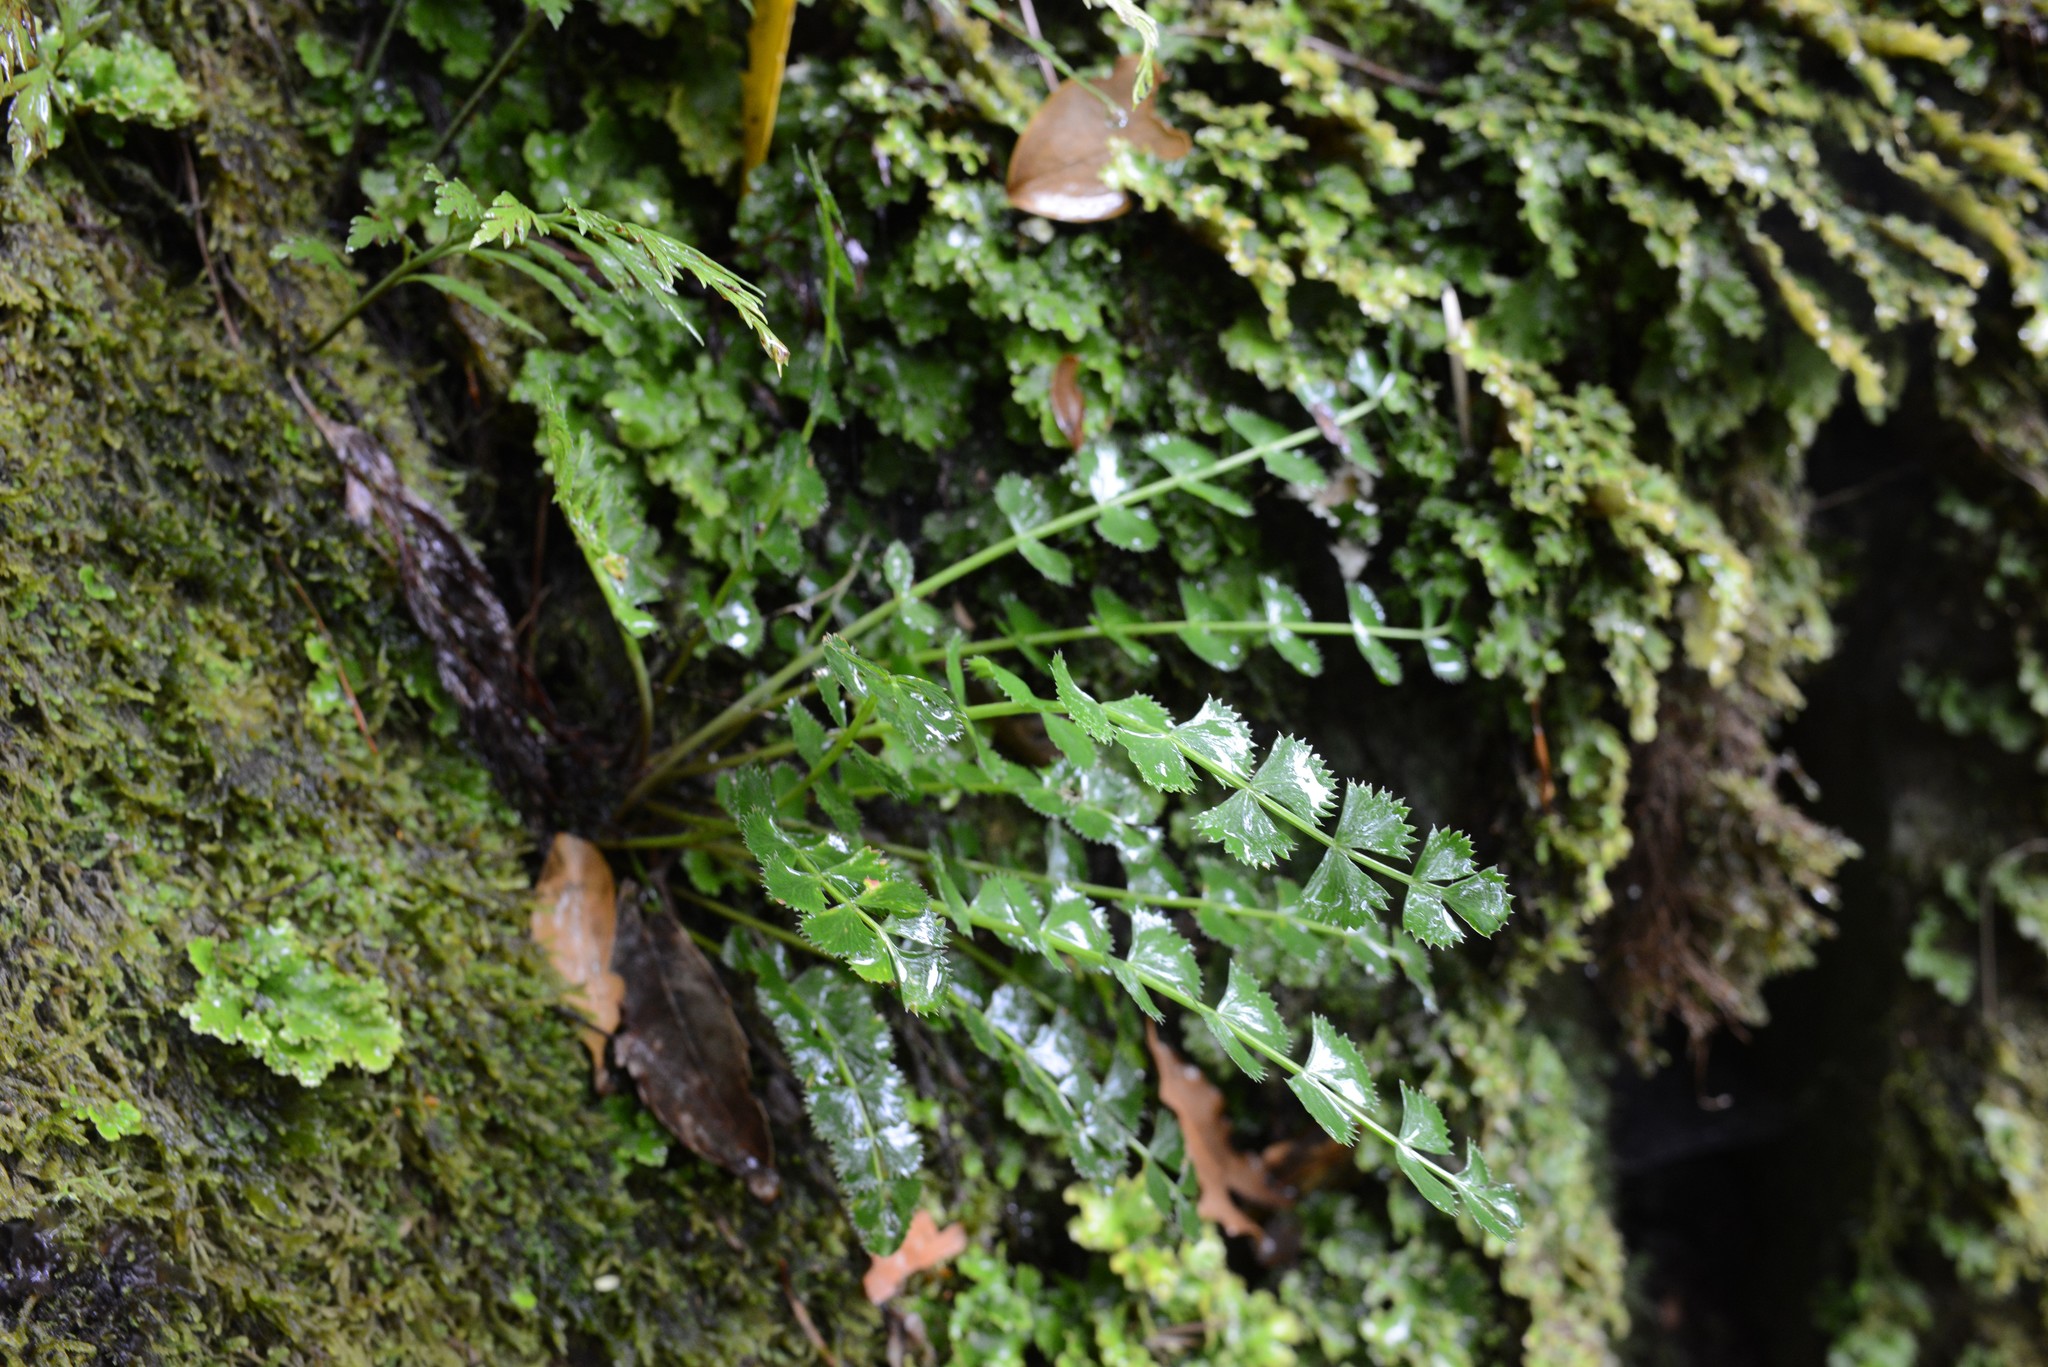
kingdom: Plantae
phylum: Tracheophyta
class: Magnoliopsida
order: Apiales
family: Apiaceae
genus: Anisotome
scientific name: Anisotome aromatica
